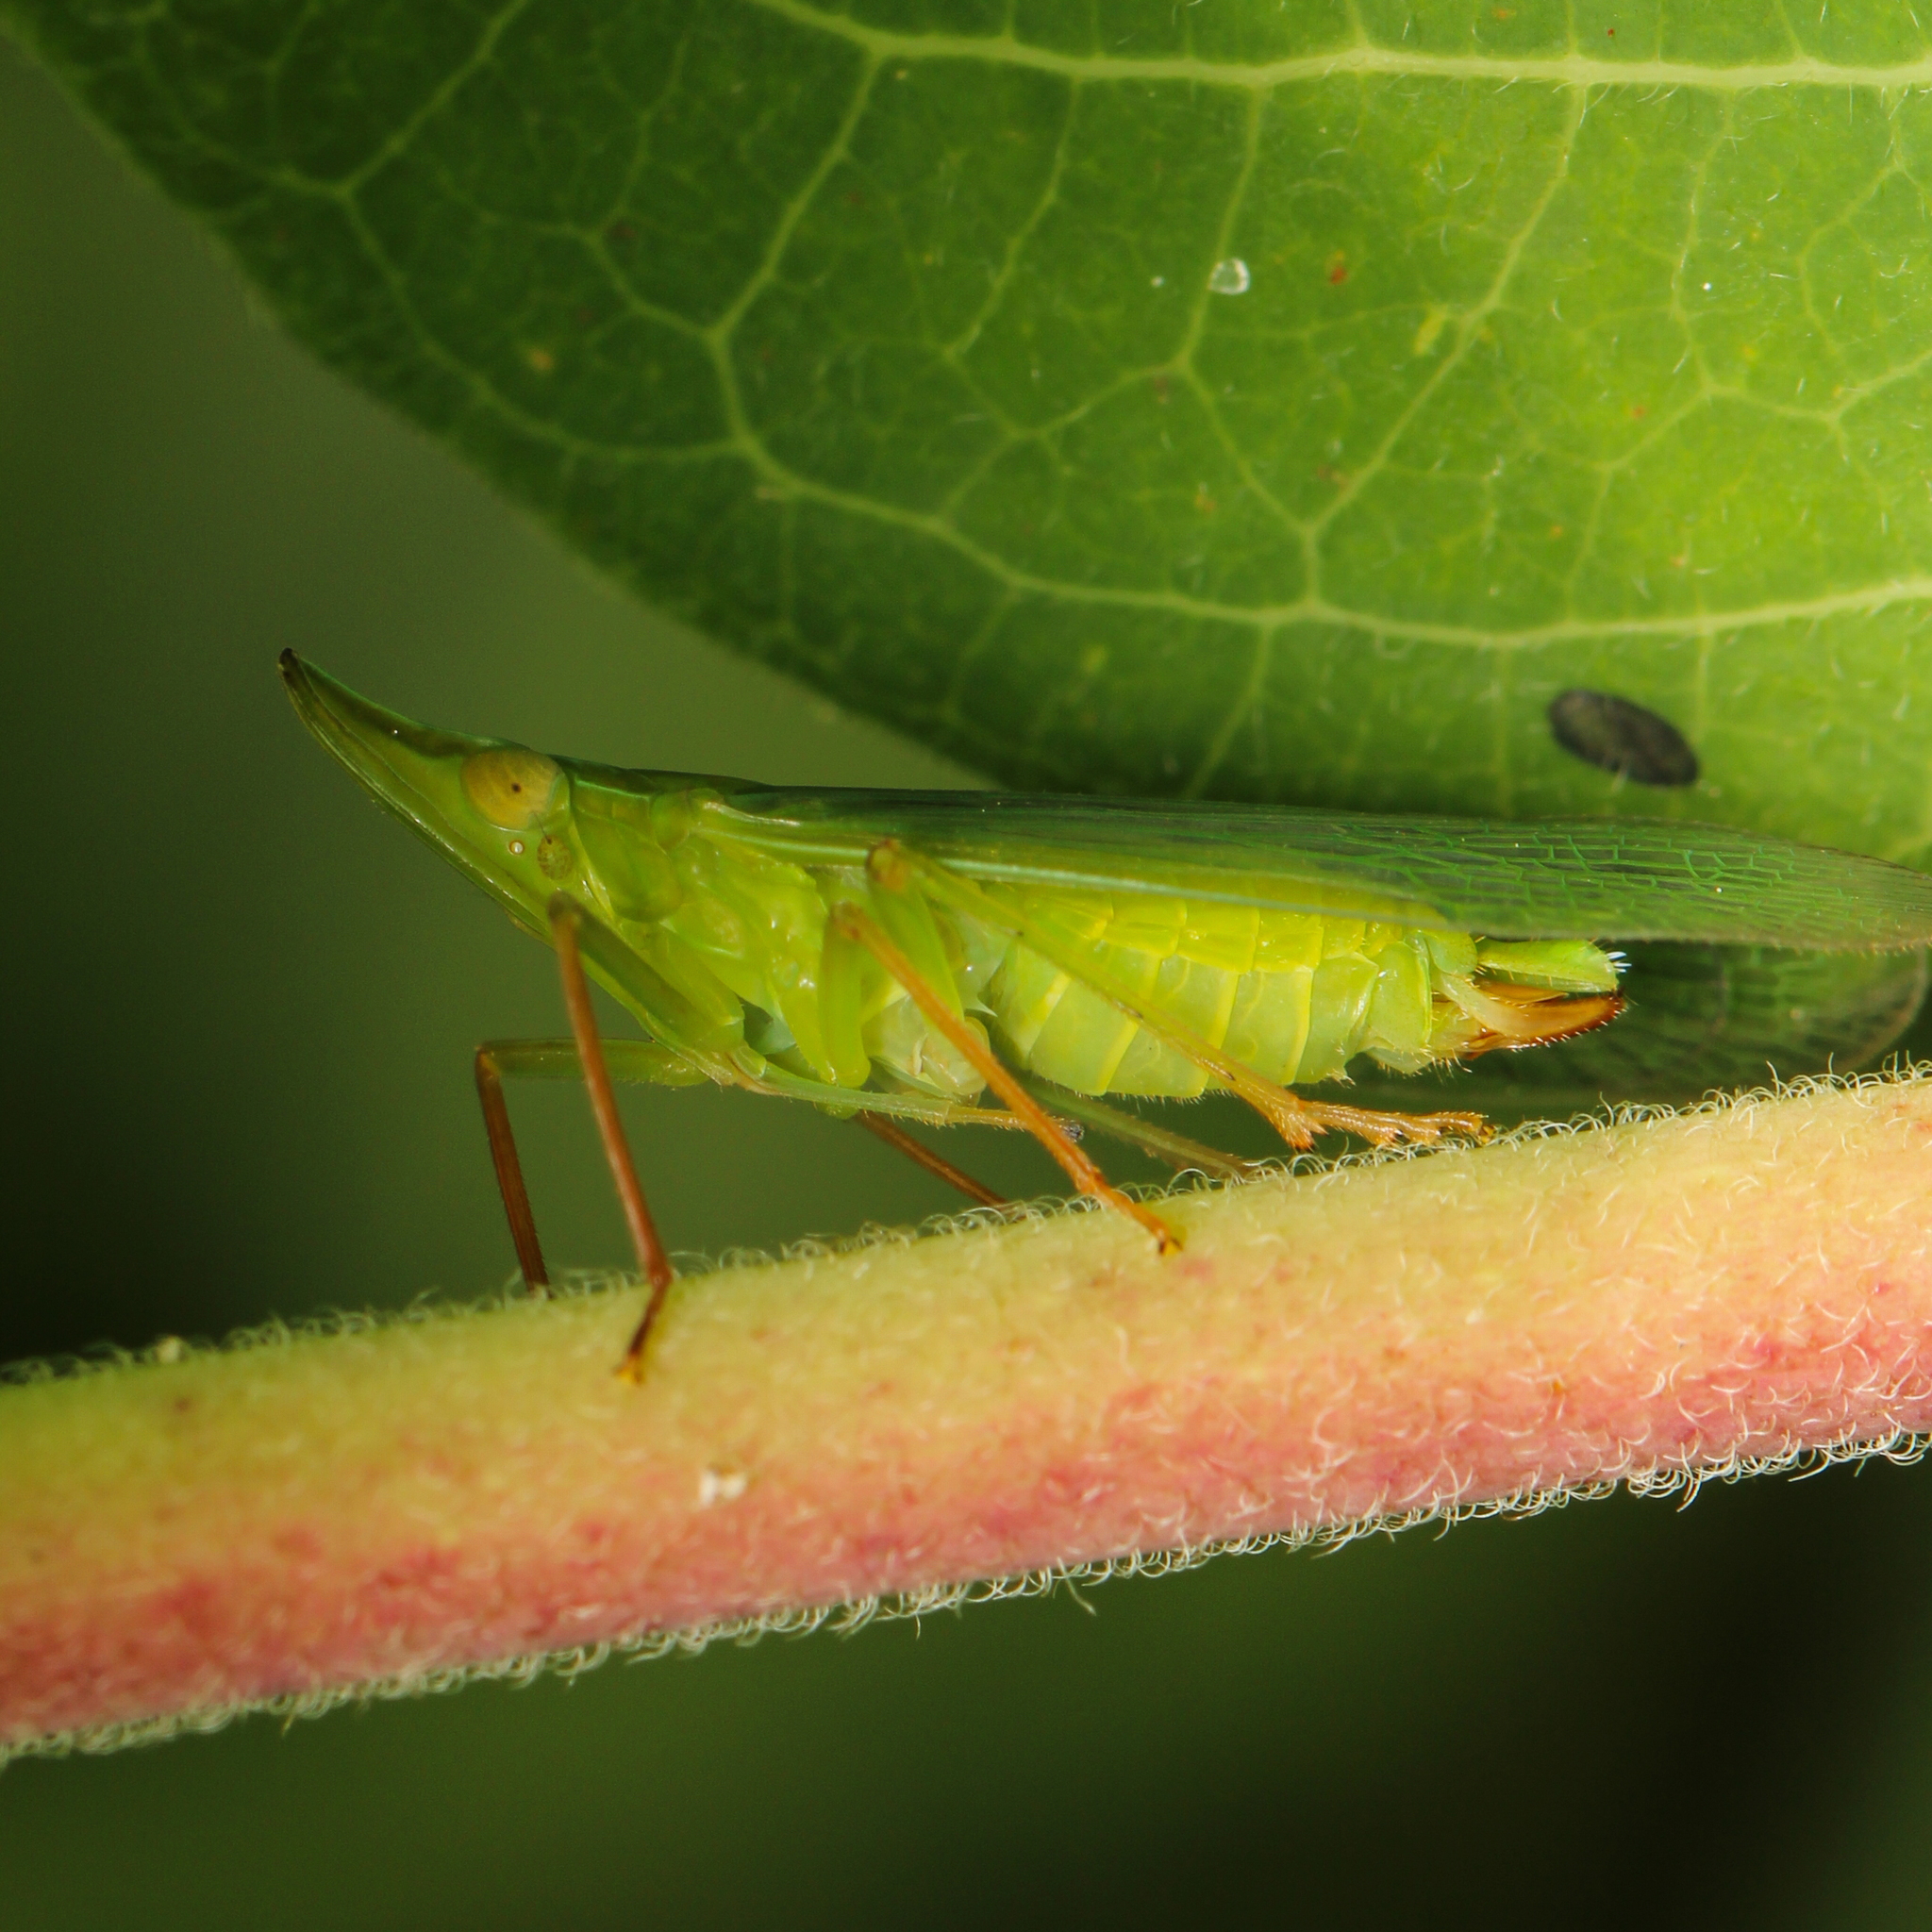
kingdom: Animalia
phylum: Arthropoda
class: Insecta
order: Hemiptera
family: Dictyopharidae
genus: Rhynchomitra
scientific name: Rhynchomitra microrhina
